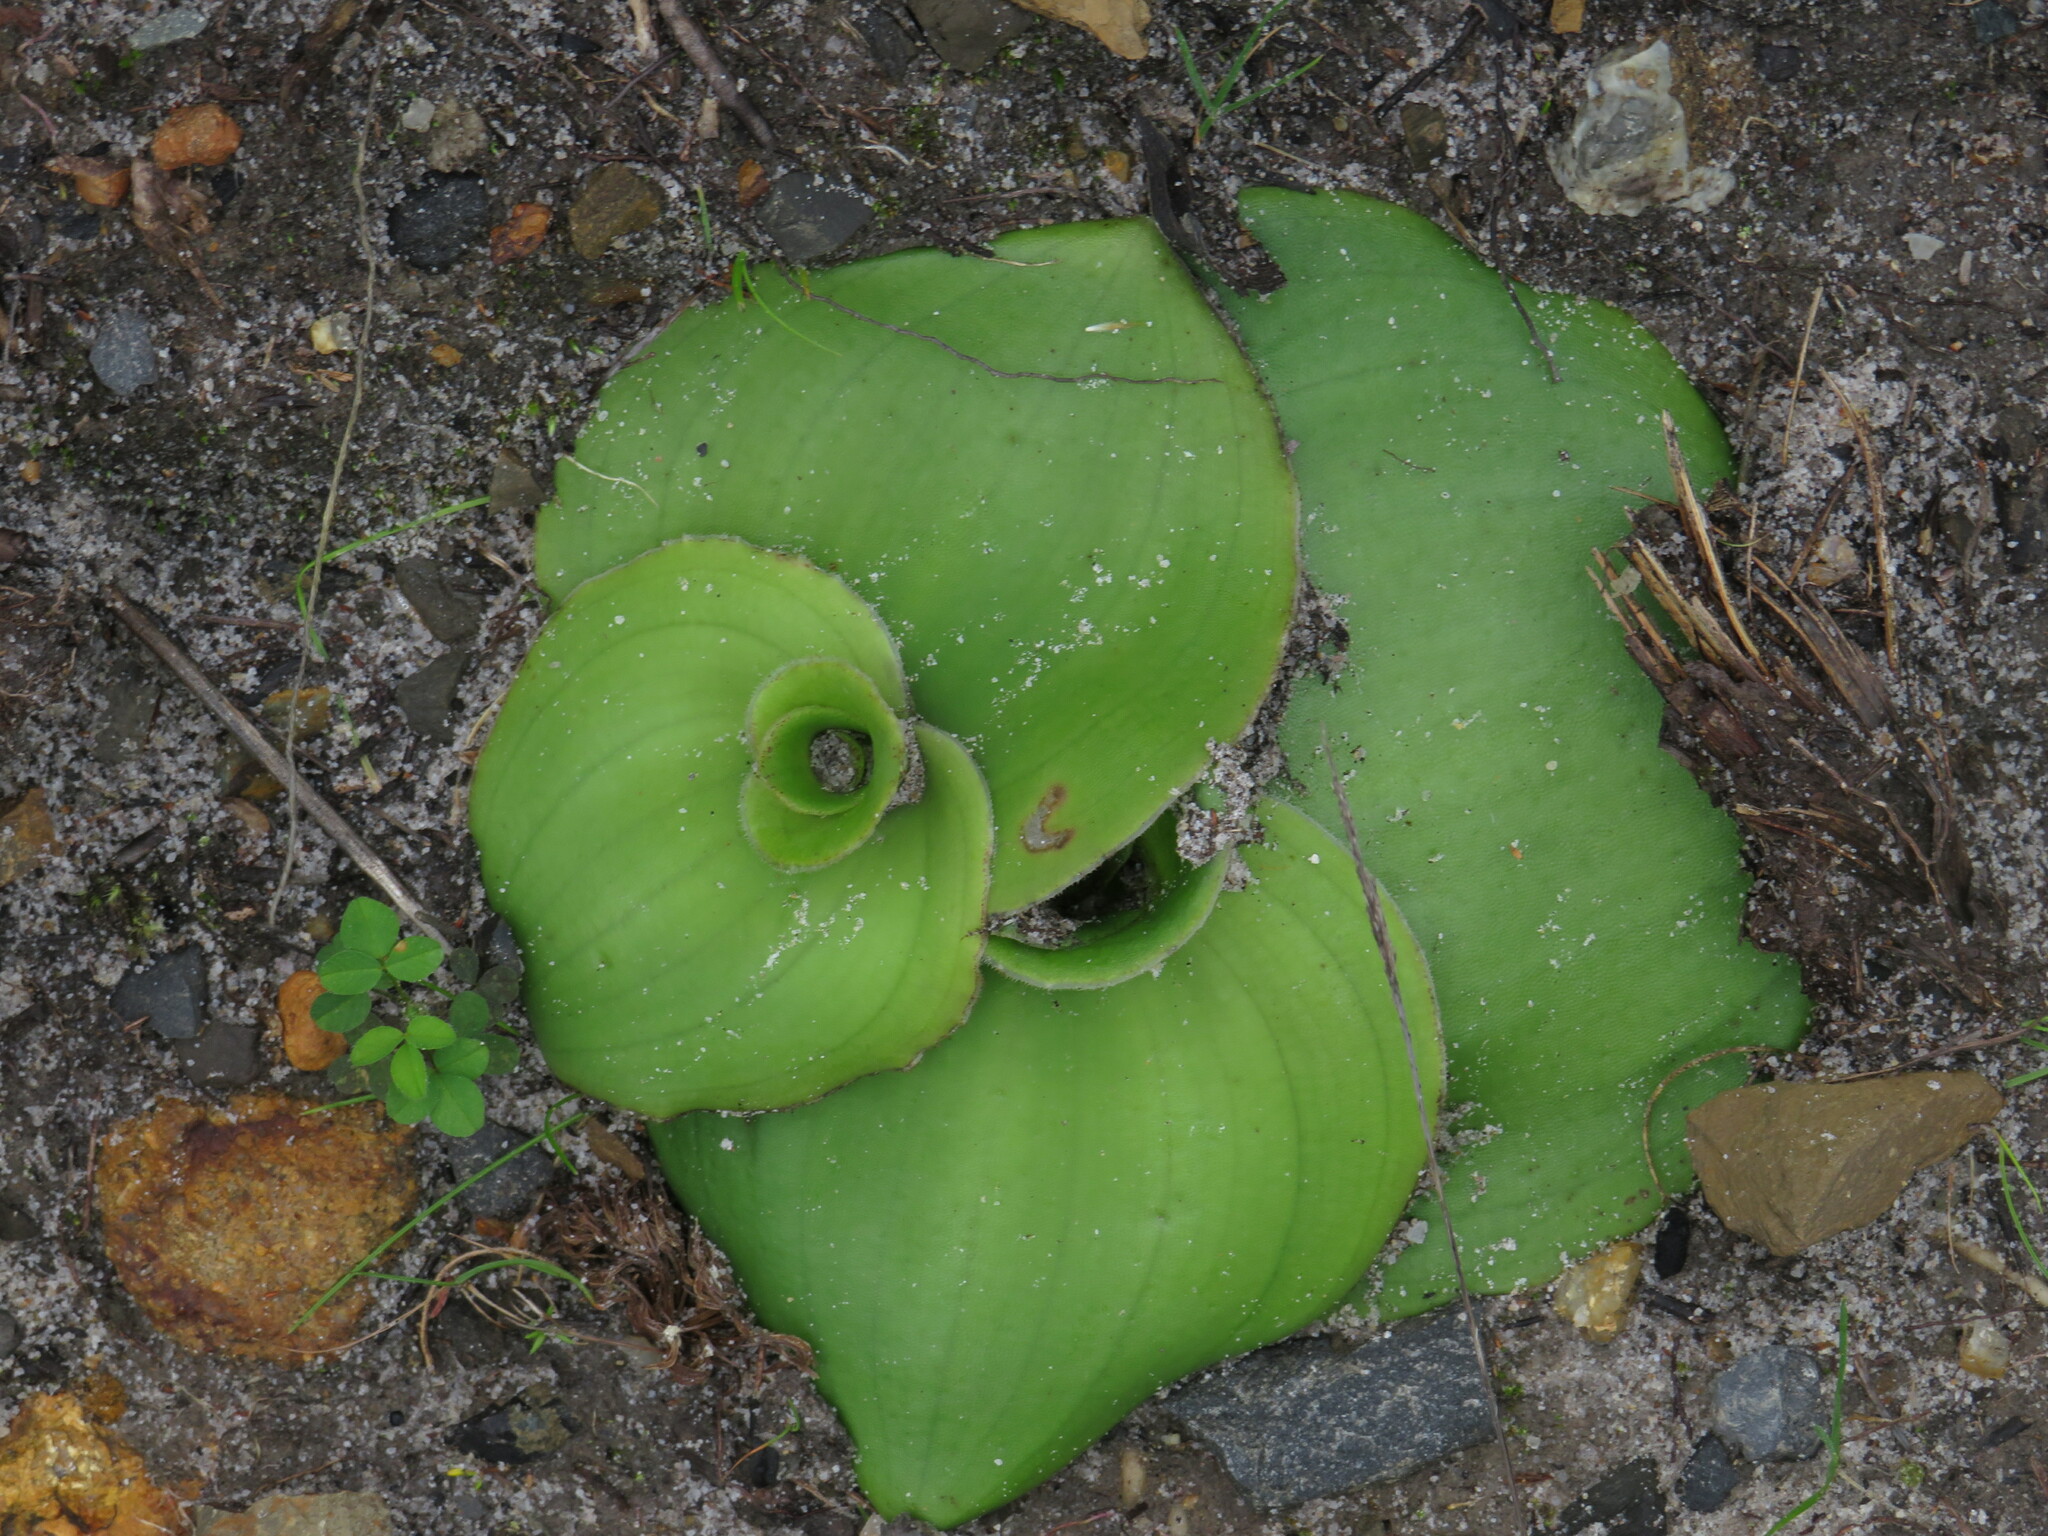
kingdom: Plantae
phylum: Tracheophyta
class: Liliopsida
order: Asparagales
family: Orchidaceae
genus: Satyrium
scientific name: Satyrium bicorne
